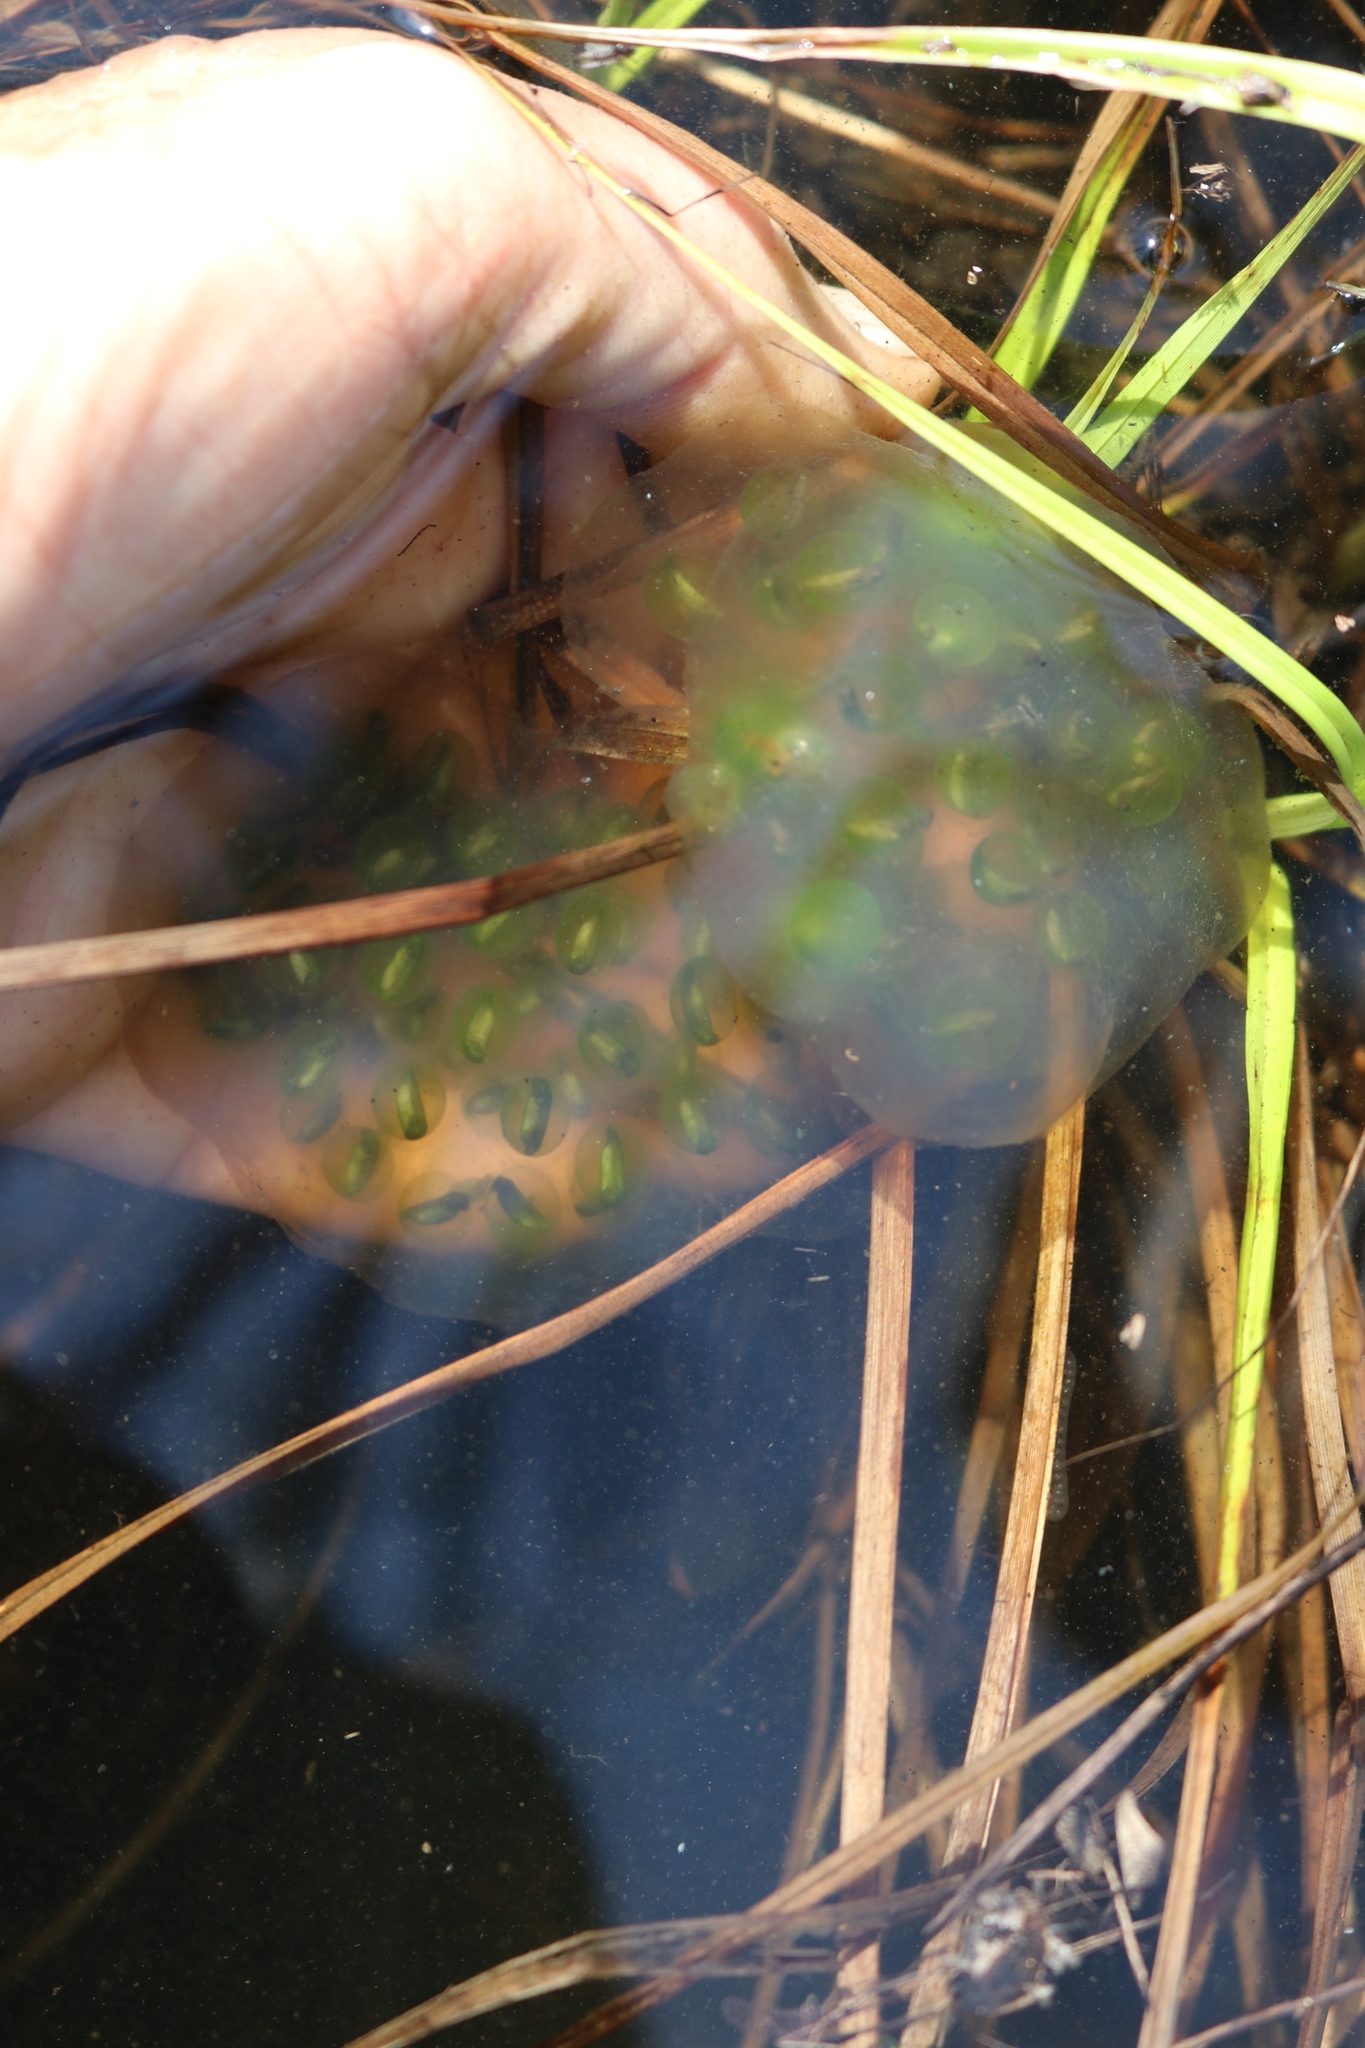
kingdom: Animalia
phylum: Chordata
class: Amphibia
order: Caudata
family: Ambystomatidae
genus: Ambystoma
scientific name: Ambystoma maculatum
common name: Spotted salamander
